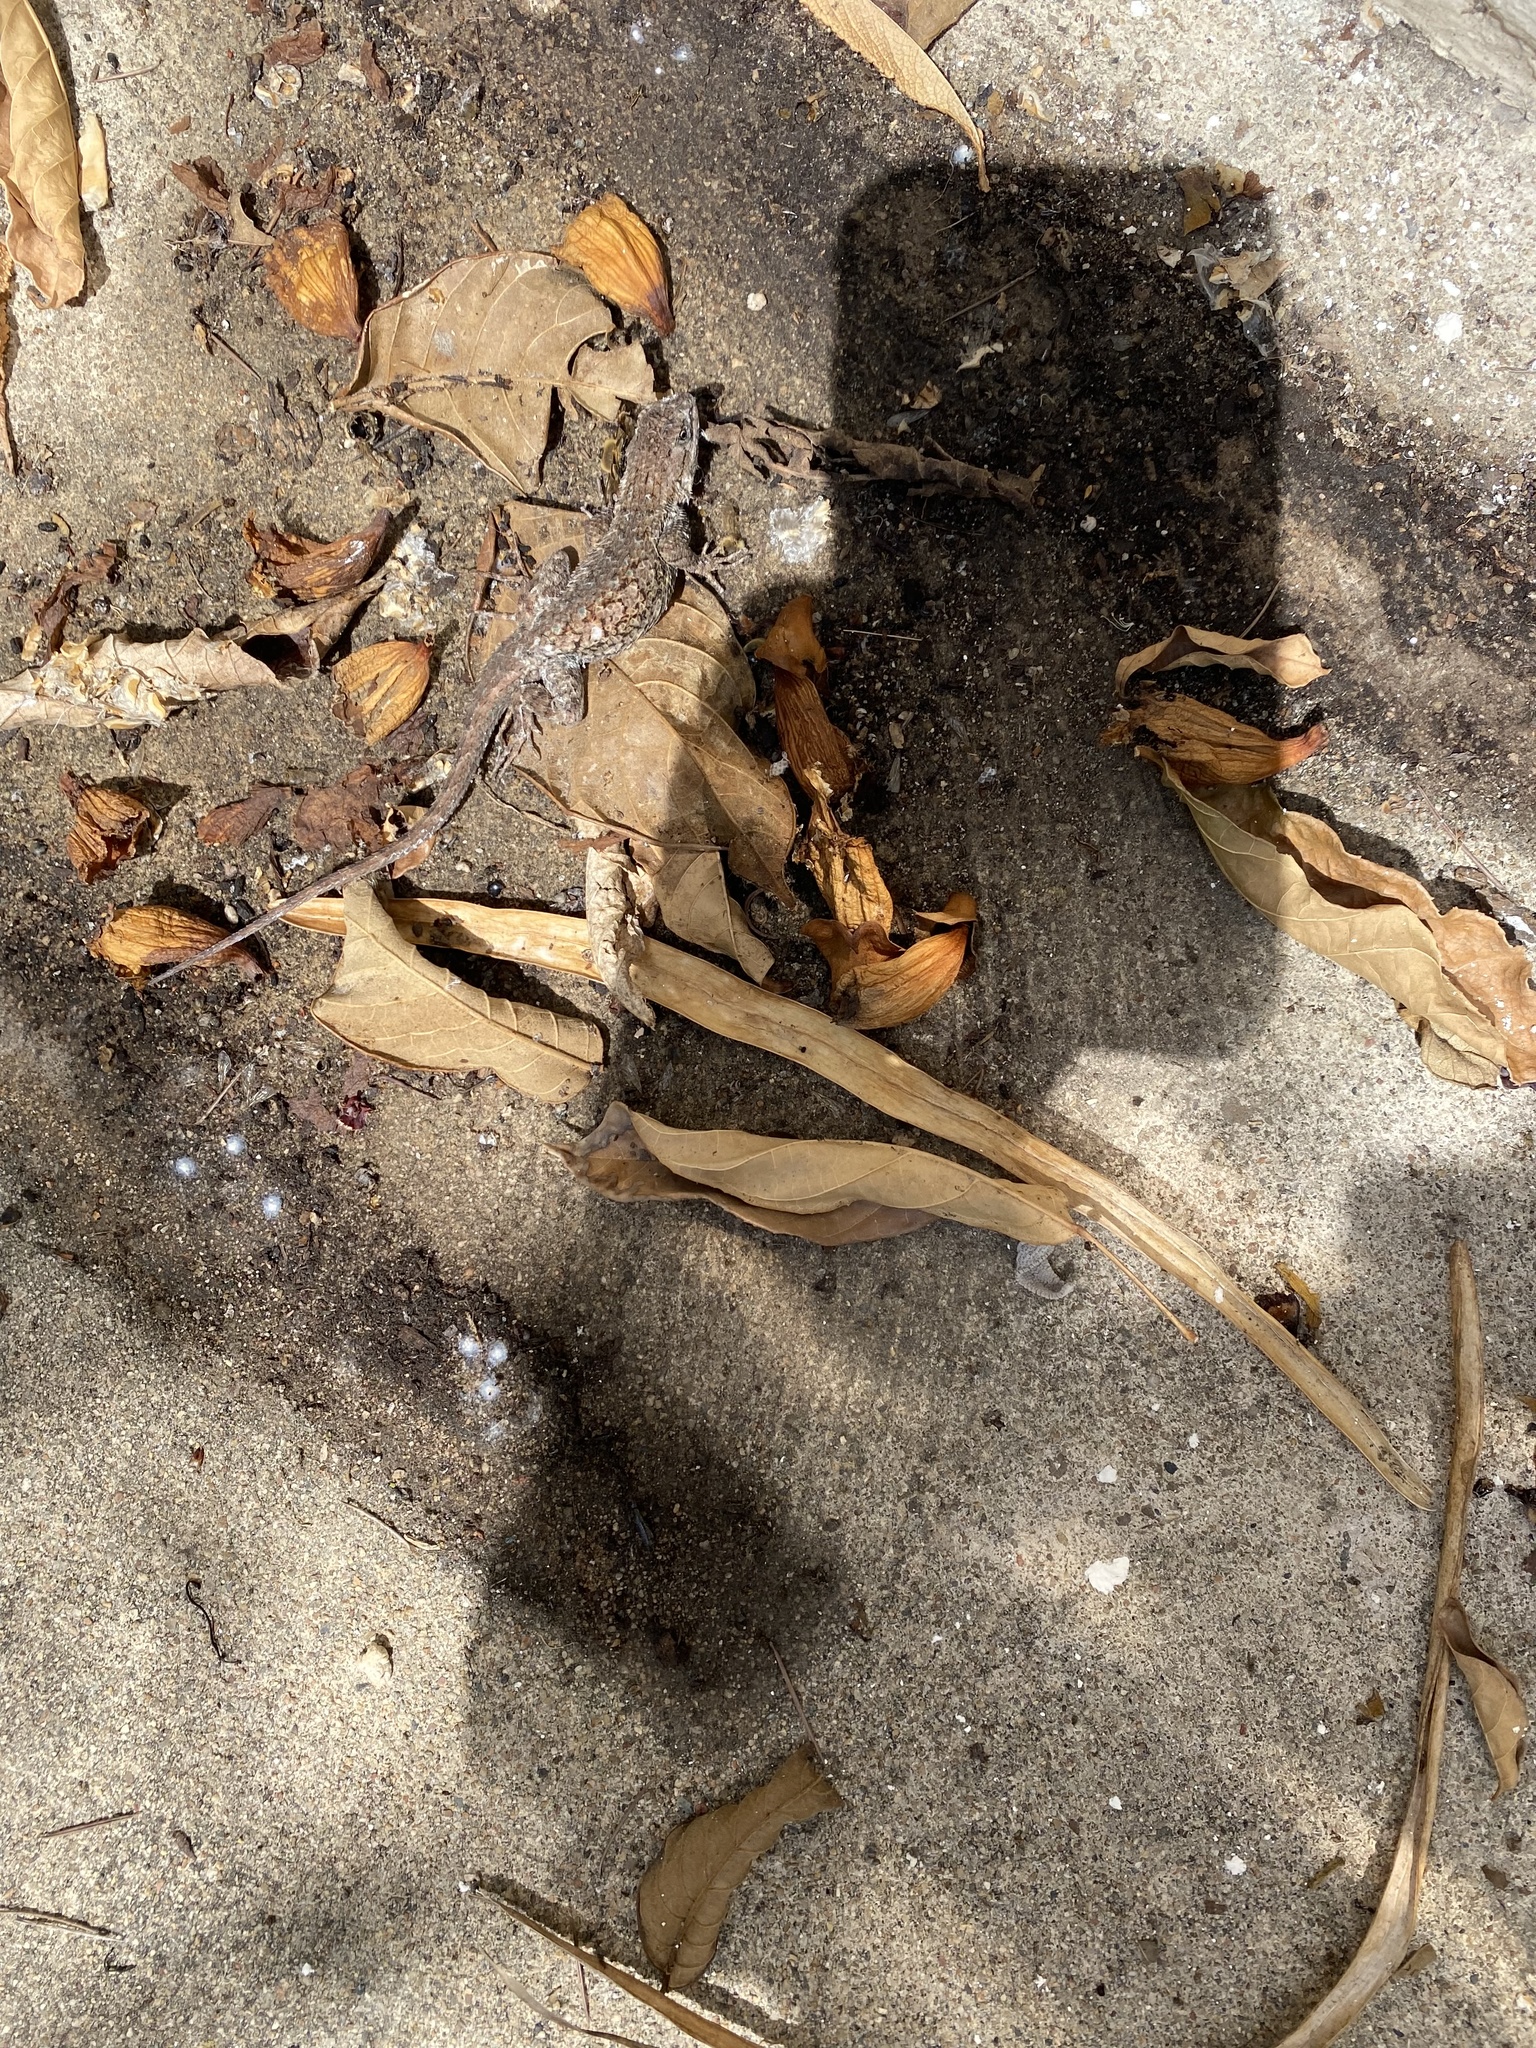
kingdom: Animalia
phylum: Chordata
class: Squamata
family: Phrynosomatidae
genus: Sceloporus
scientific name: Sceloporus occidentalis
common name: Western fence lizard
